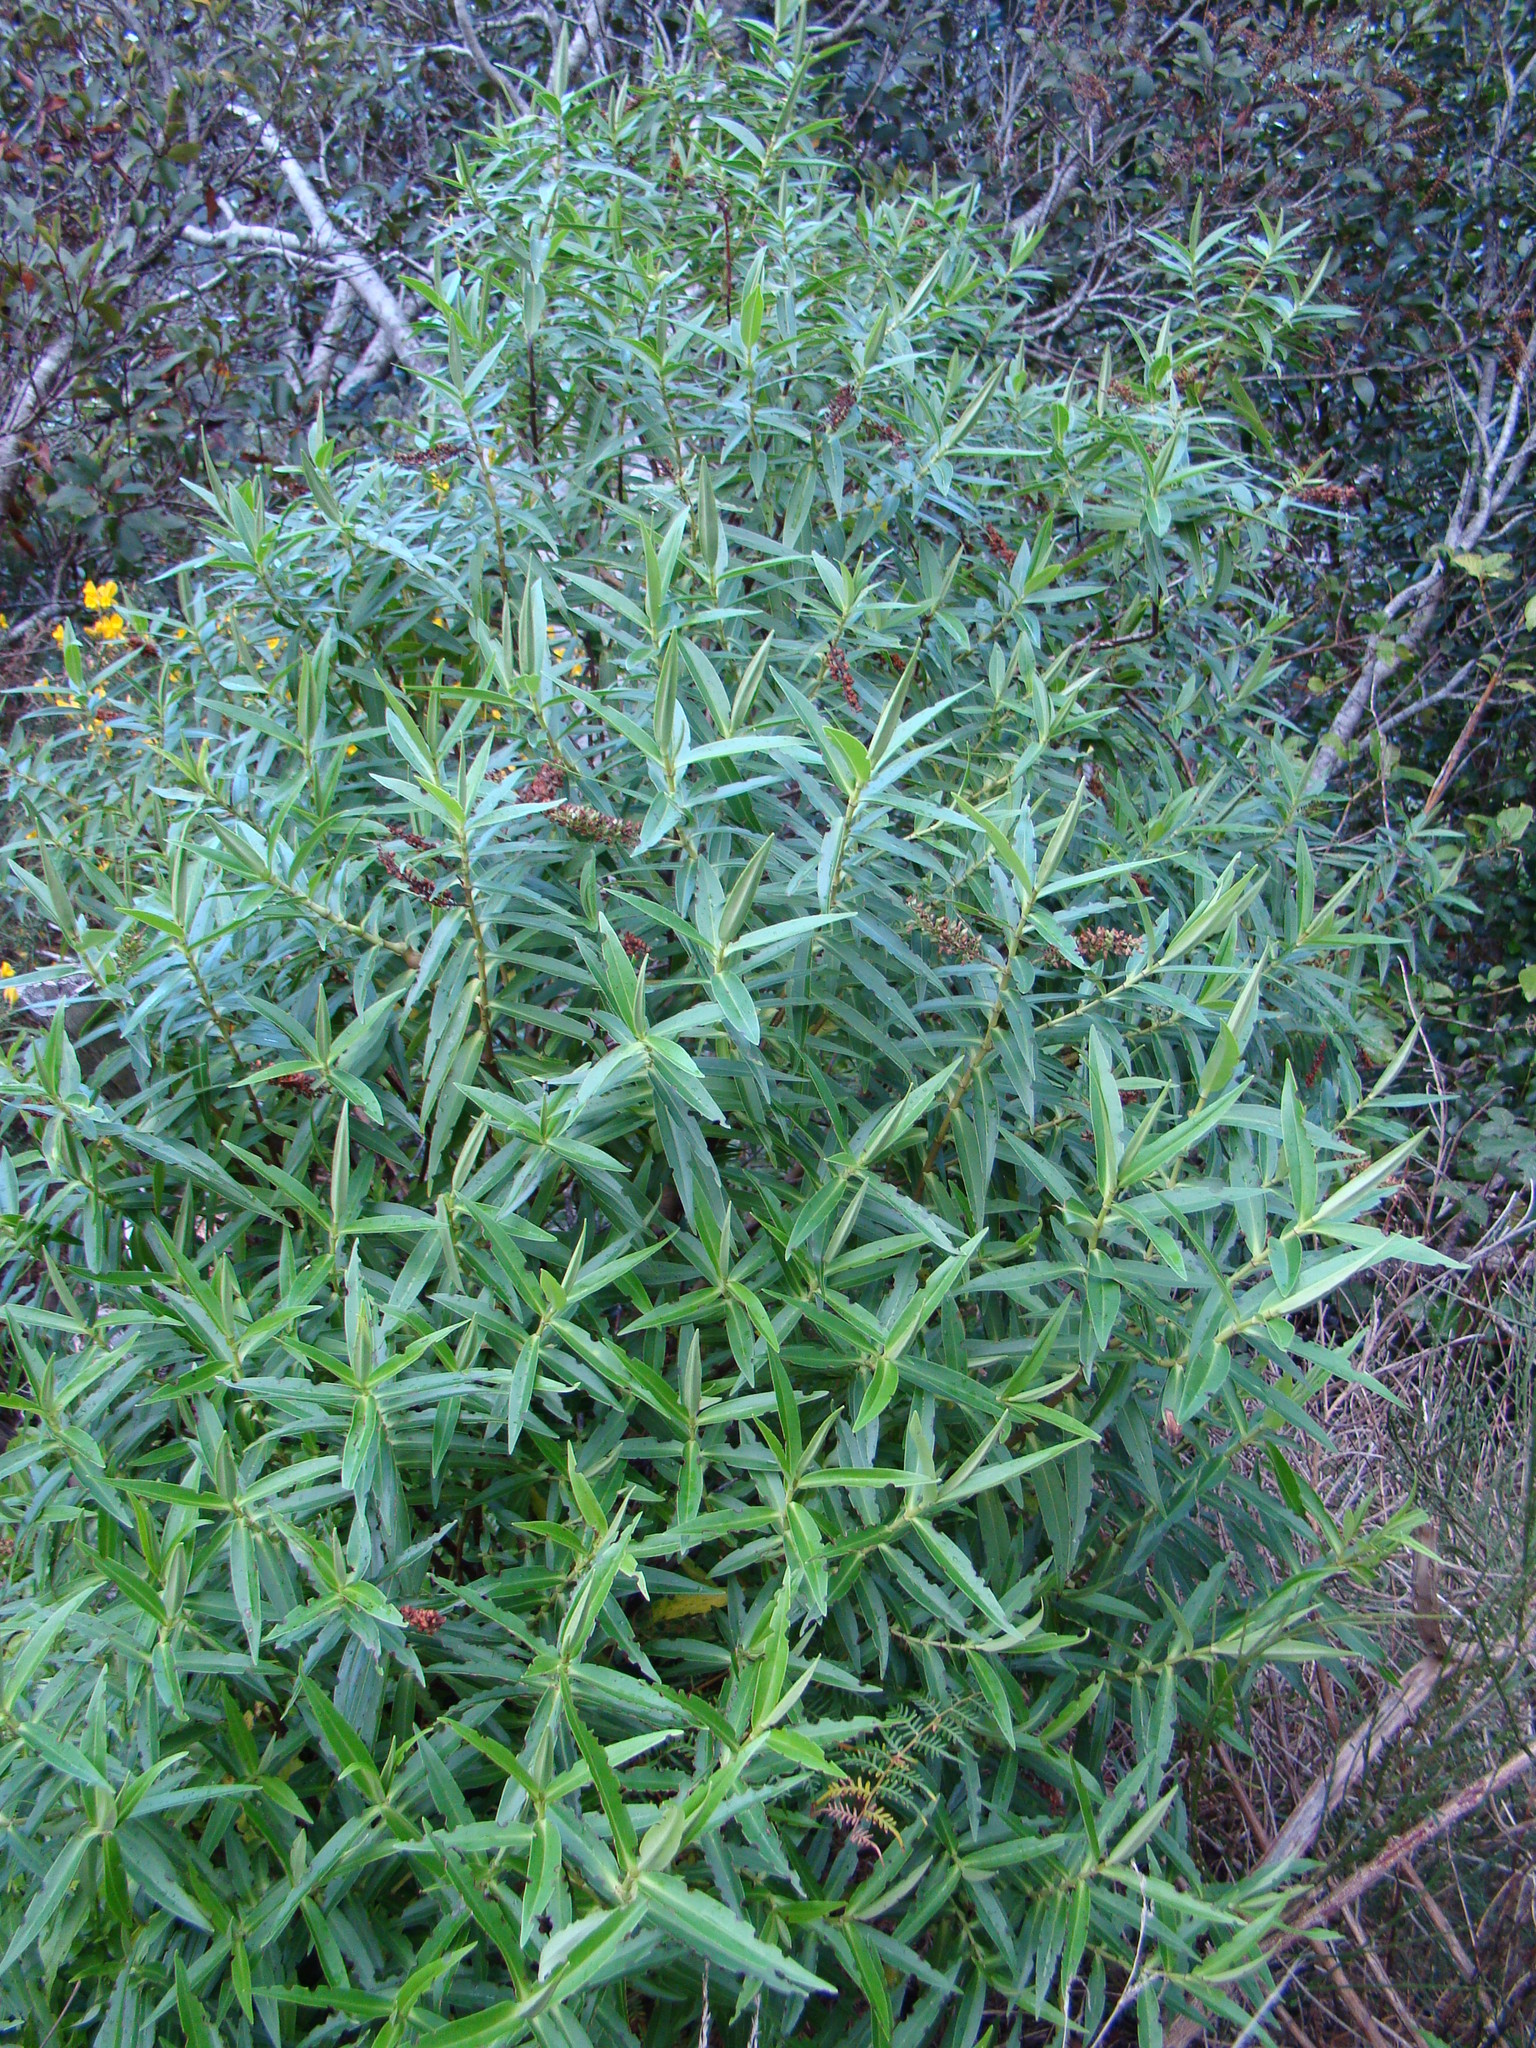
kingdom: Plantae
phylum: Tracheophyta
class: Magnoliopsida
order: Lamiales
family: Plantaginaceae
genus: Veronica
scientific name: Veronica stricta
